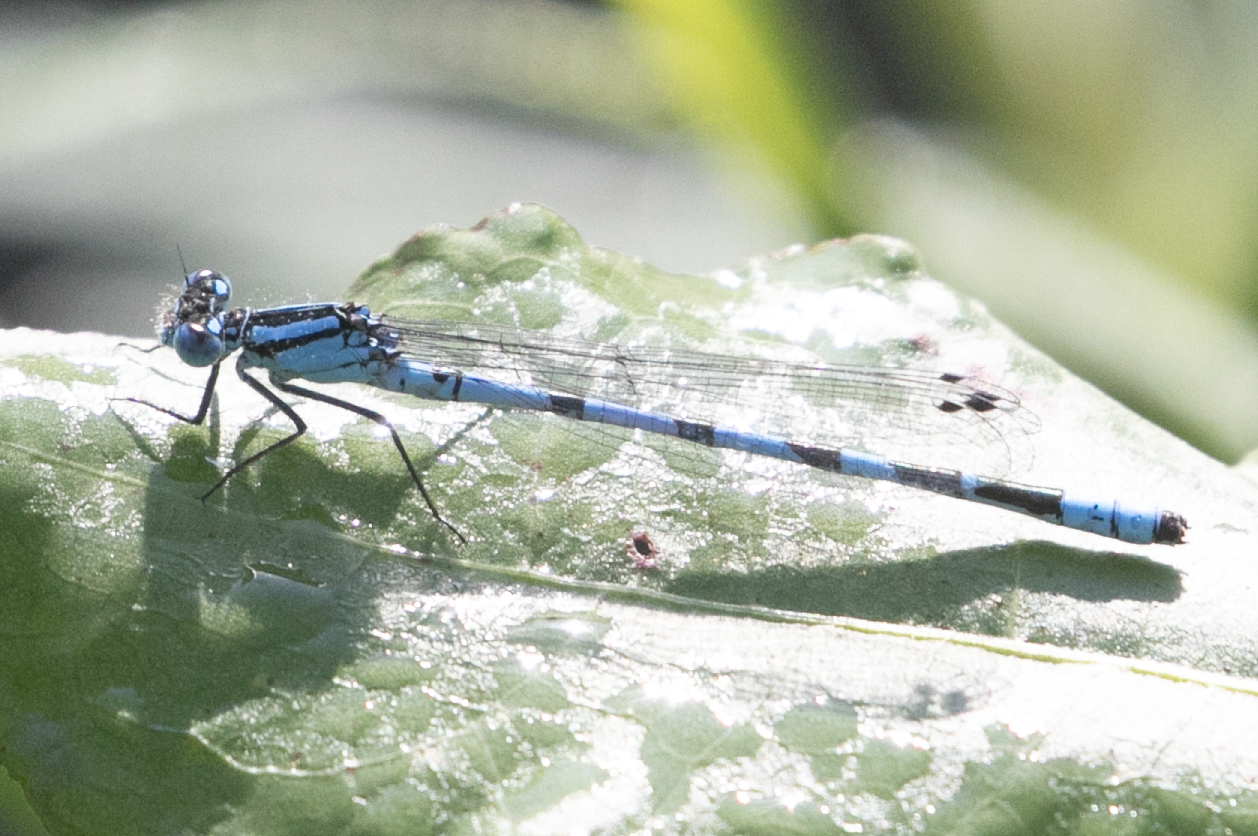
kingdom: Animalia
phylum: Arthropoda
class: Insecta
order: Odonata
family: Coenagrionidae
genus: Enallagma
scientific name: Enallagma cyathigerum
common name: Common blue damselfly
